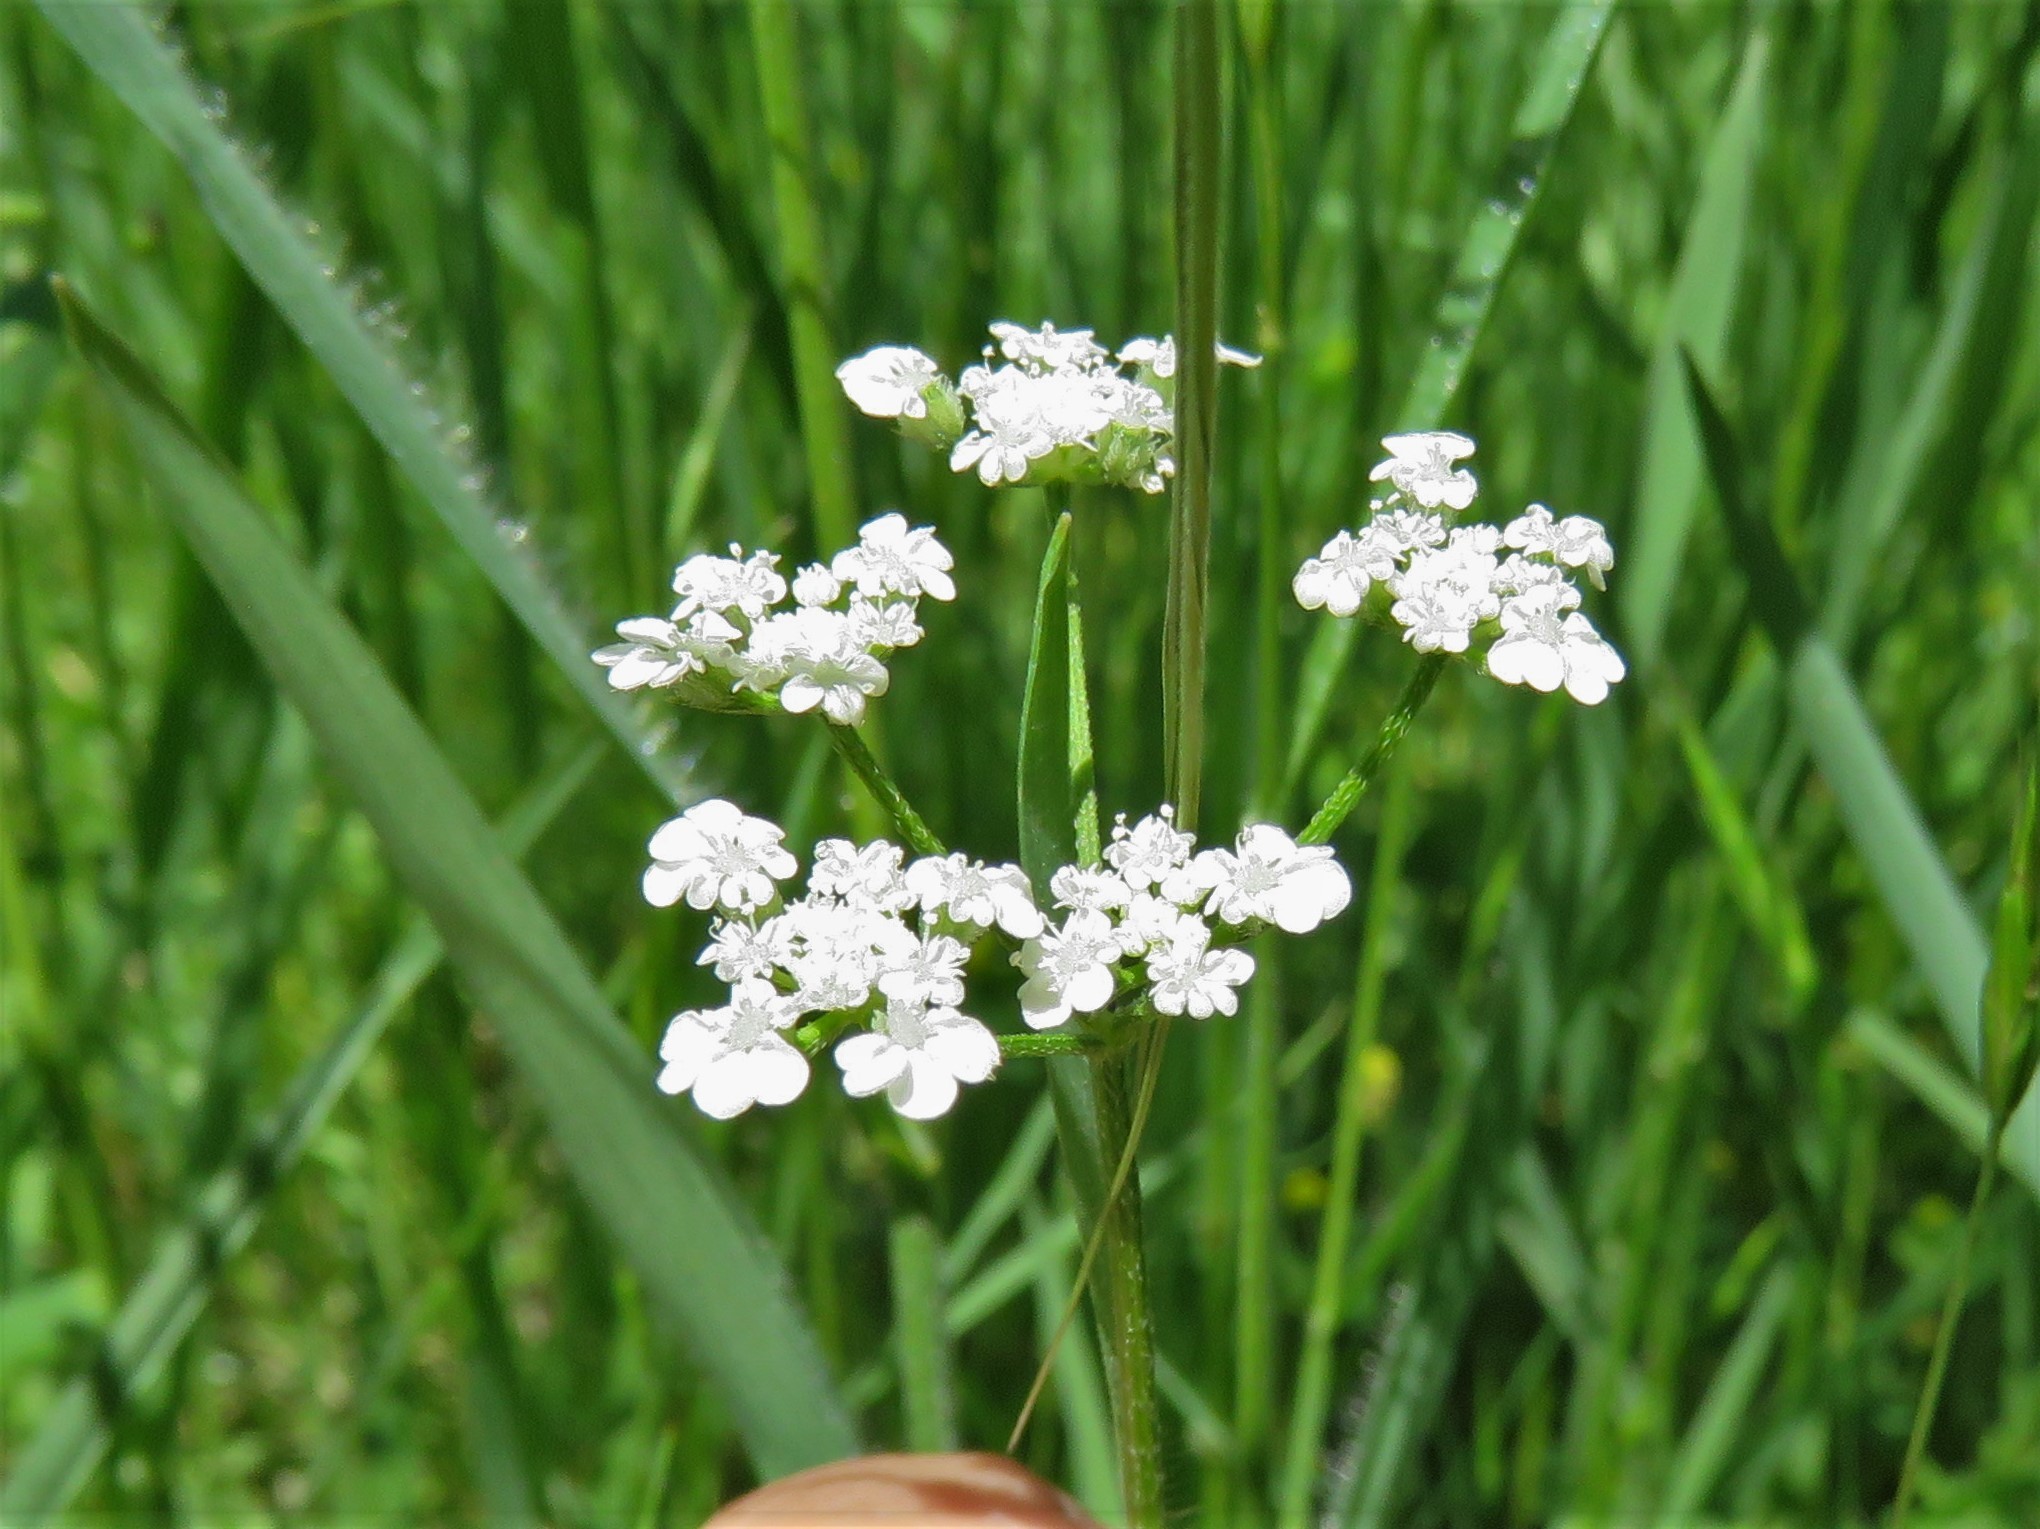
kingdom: Plantae
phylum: Tracheophyta
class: Magnoliopsida
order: Apiales
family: Apiaceae
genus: Atrema
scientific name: Atrema americanum
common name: Prairie-bishop
